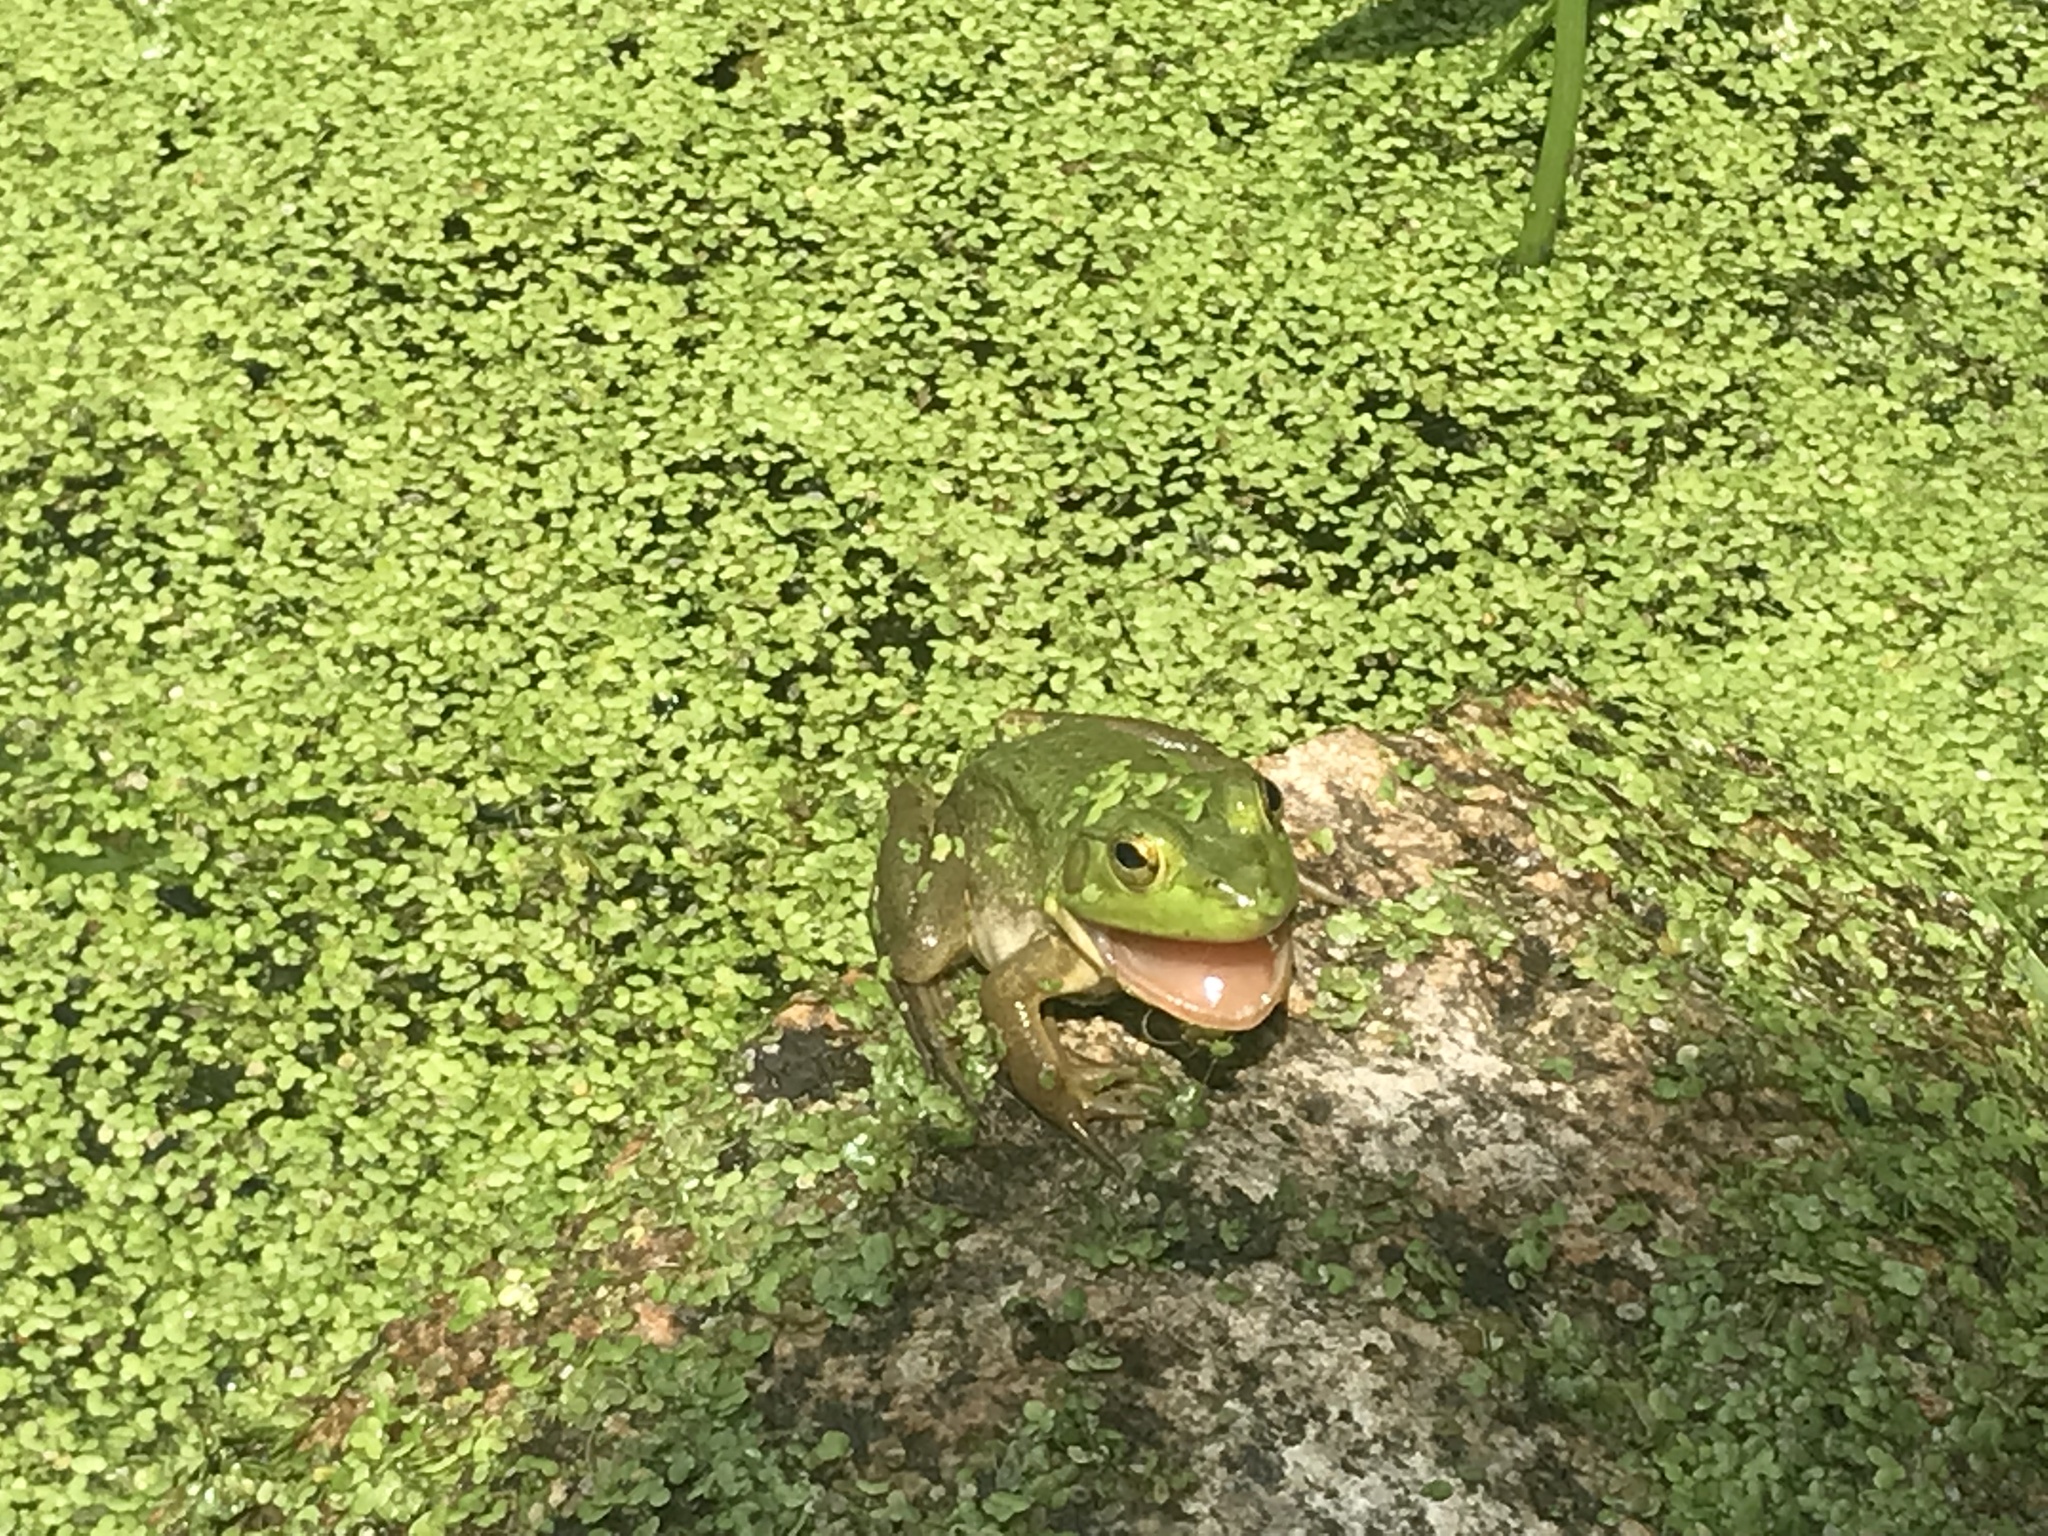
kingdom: Animalia
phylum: Chordata
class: Amphibia
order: Anura
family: Ranidae
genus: Lithobates
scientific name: Lithobates catesbeianus
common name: American bullfrog
